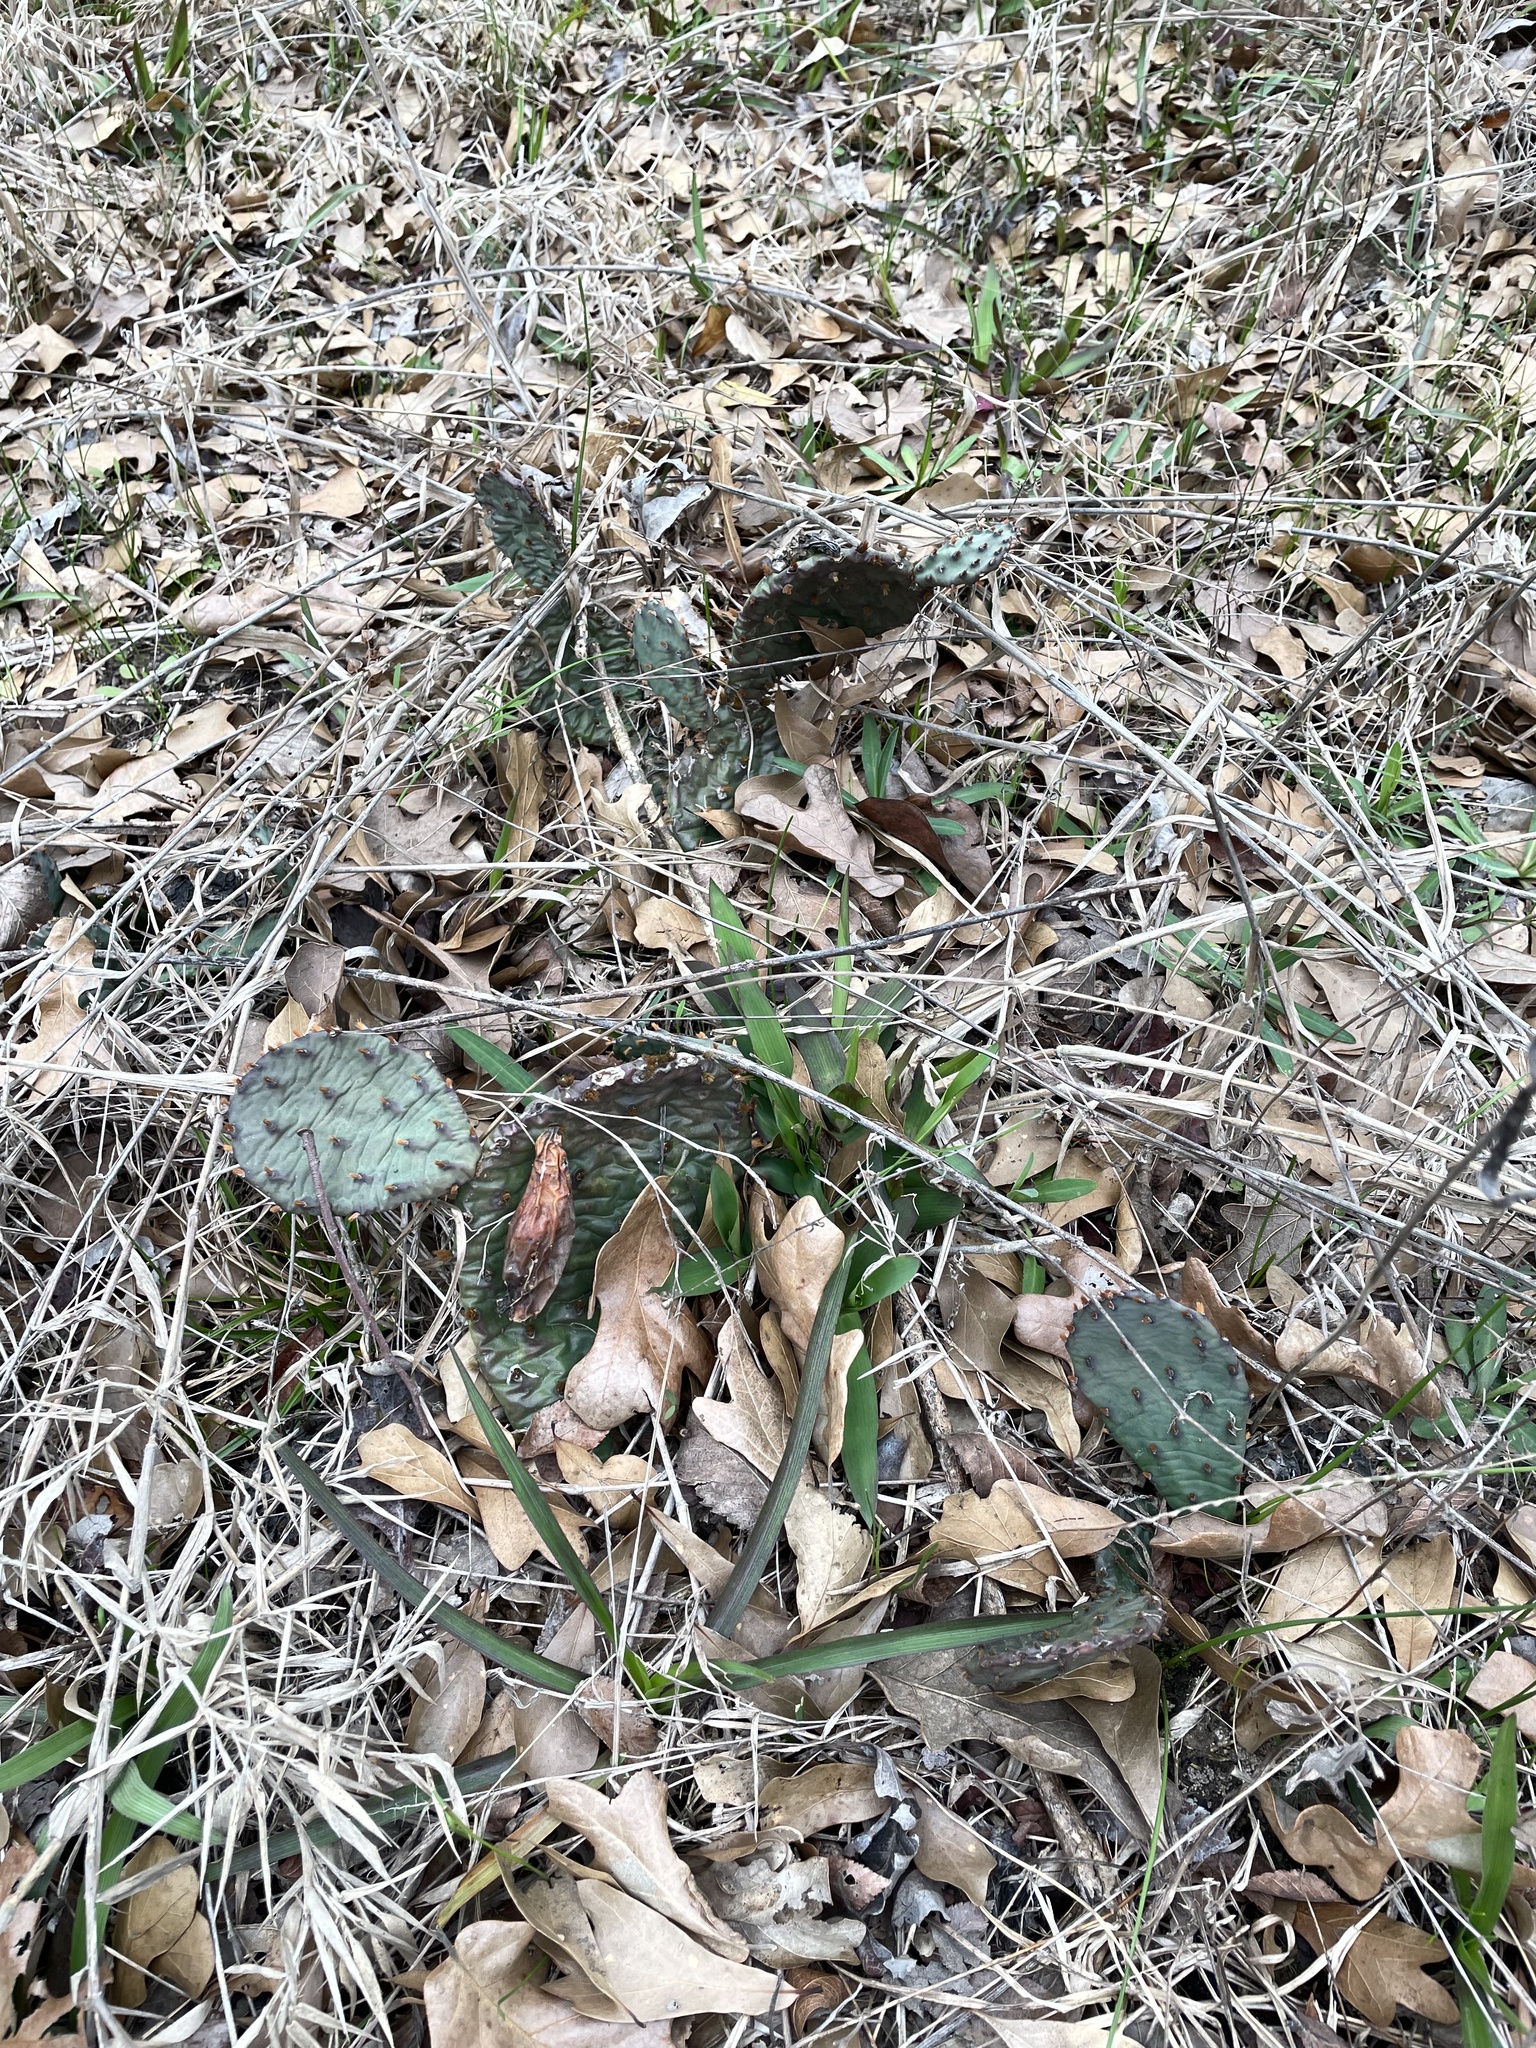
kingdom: Plantae
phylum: Tracheophyta
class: Magnoliopsida
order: Caryophyllales
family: Cactaceae
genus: Opuntia
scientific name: Opuntia macrorhiza
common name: Grassland pricklypear
